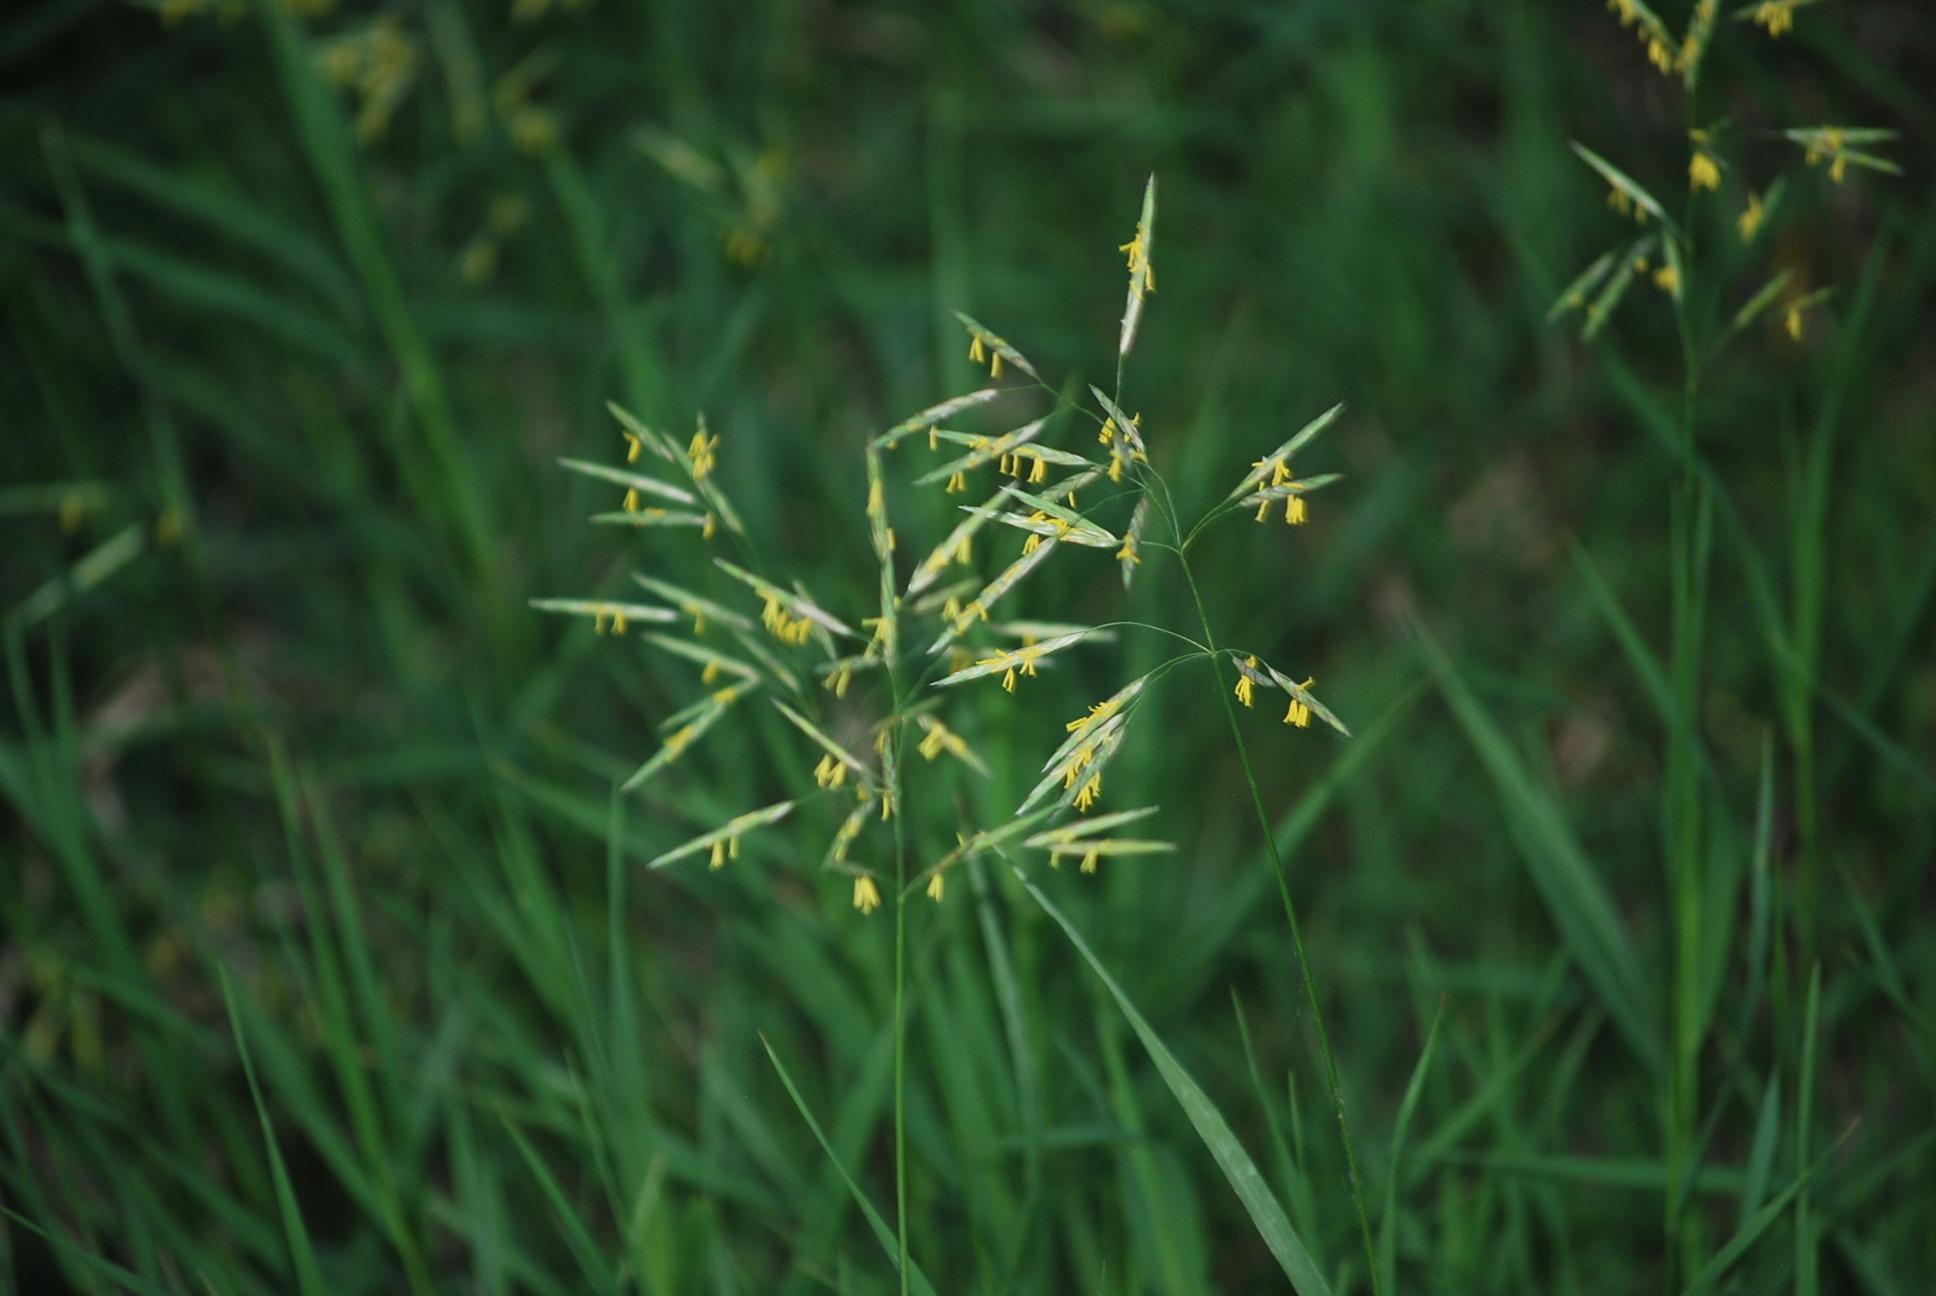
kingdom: Plantae
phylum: Tracheophyta
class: Liliopsida
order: Poales
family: Poaceae
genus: Bromus
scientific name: Bromus inermis
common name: Smooth brome
